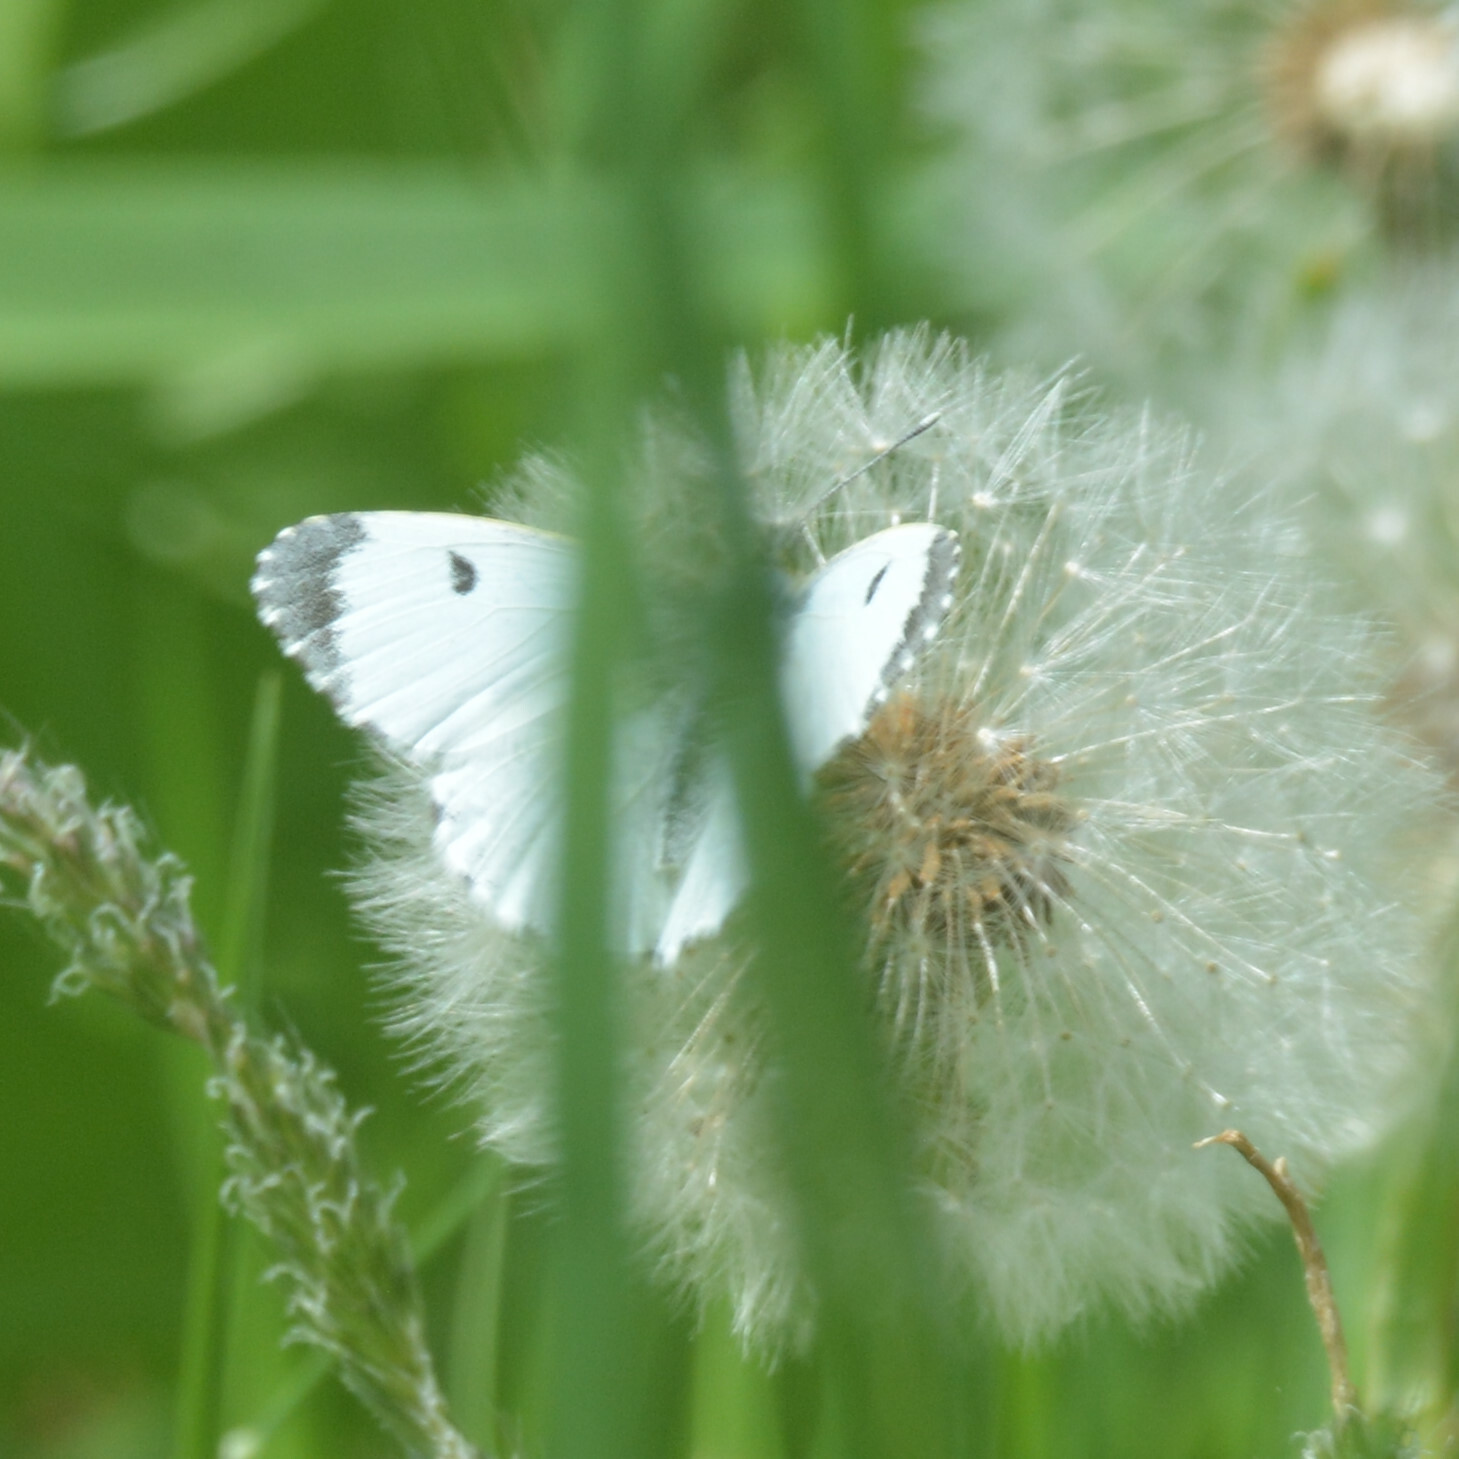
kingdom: Animalia
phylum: Arthropoda
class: Insecta
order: Lepidoptera
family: Pieridae
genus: Anthocharis
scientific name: Anthocharis cardamines
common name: Orange-tip
